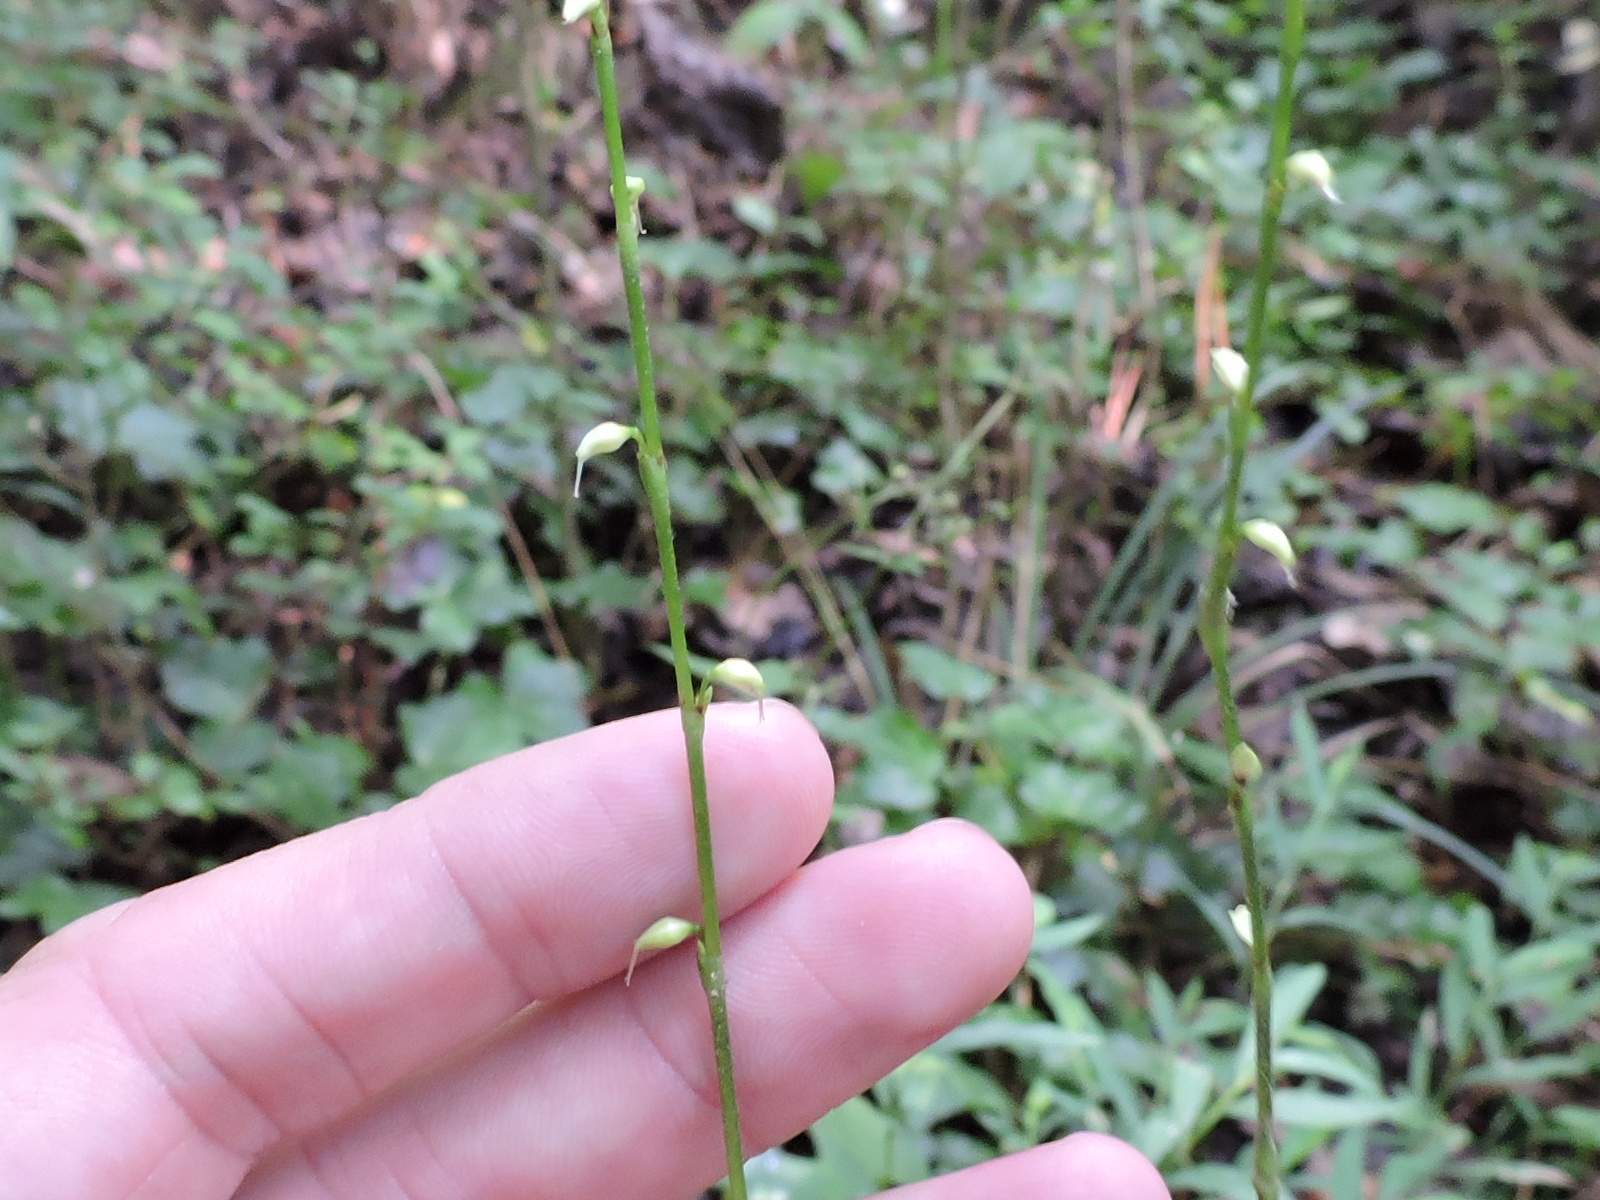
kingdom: Plantae
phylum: Tracheophyta
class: Magnoliopsida
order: Caryophyllales
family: Polygonaceae
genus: Persicaria
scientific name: Persicaria virginiana
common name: Jumpseed
